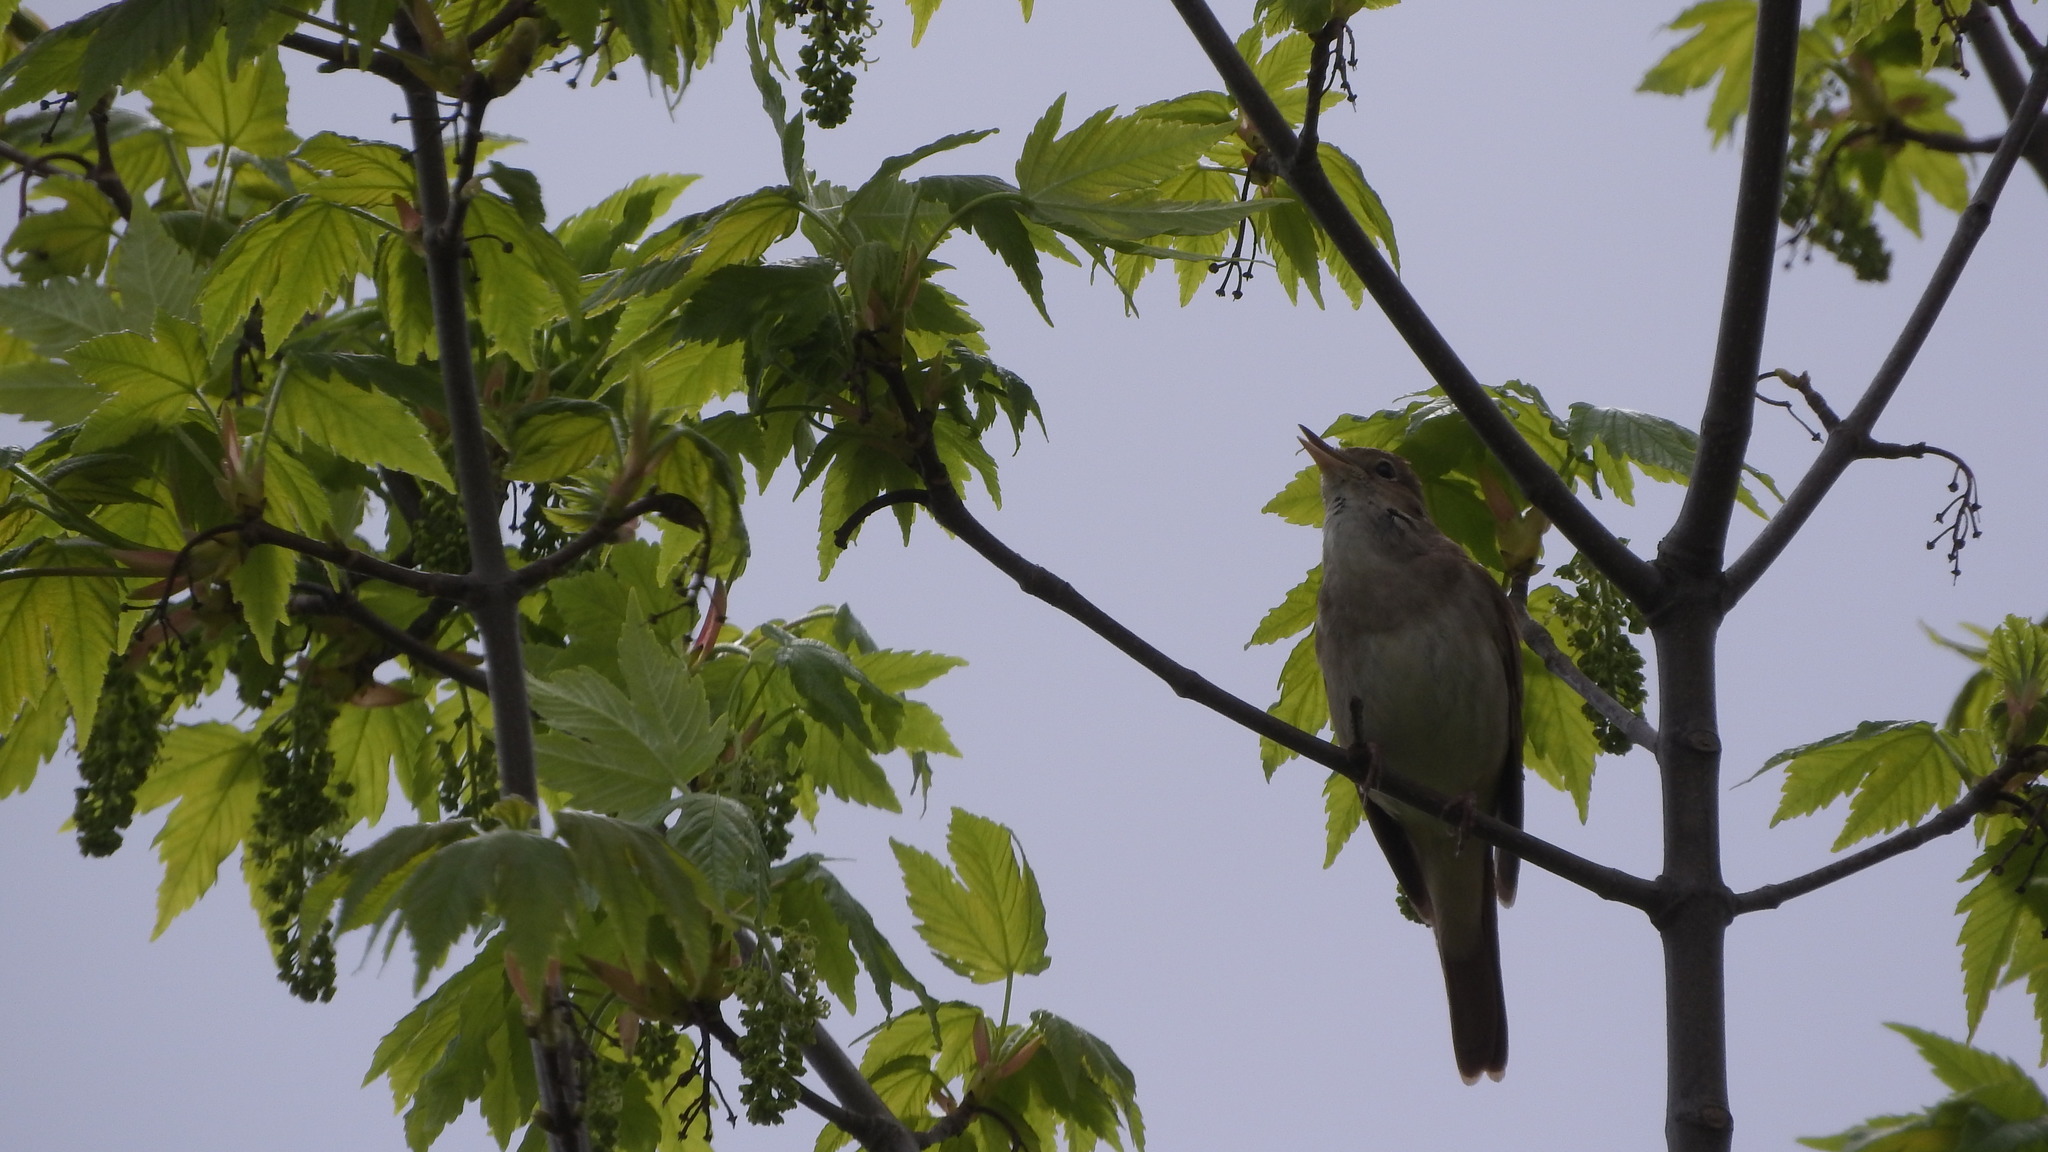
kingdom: Animalia
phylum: Chordata
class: Aves
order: Passeriformes
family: Muscicapidae
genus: Luscinia
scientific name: Luscinia megarhynchos
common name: Common nightingale
